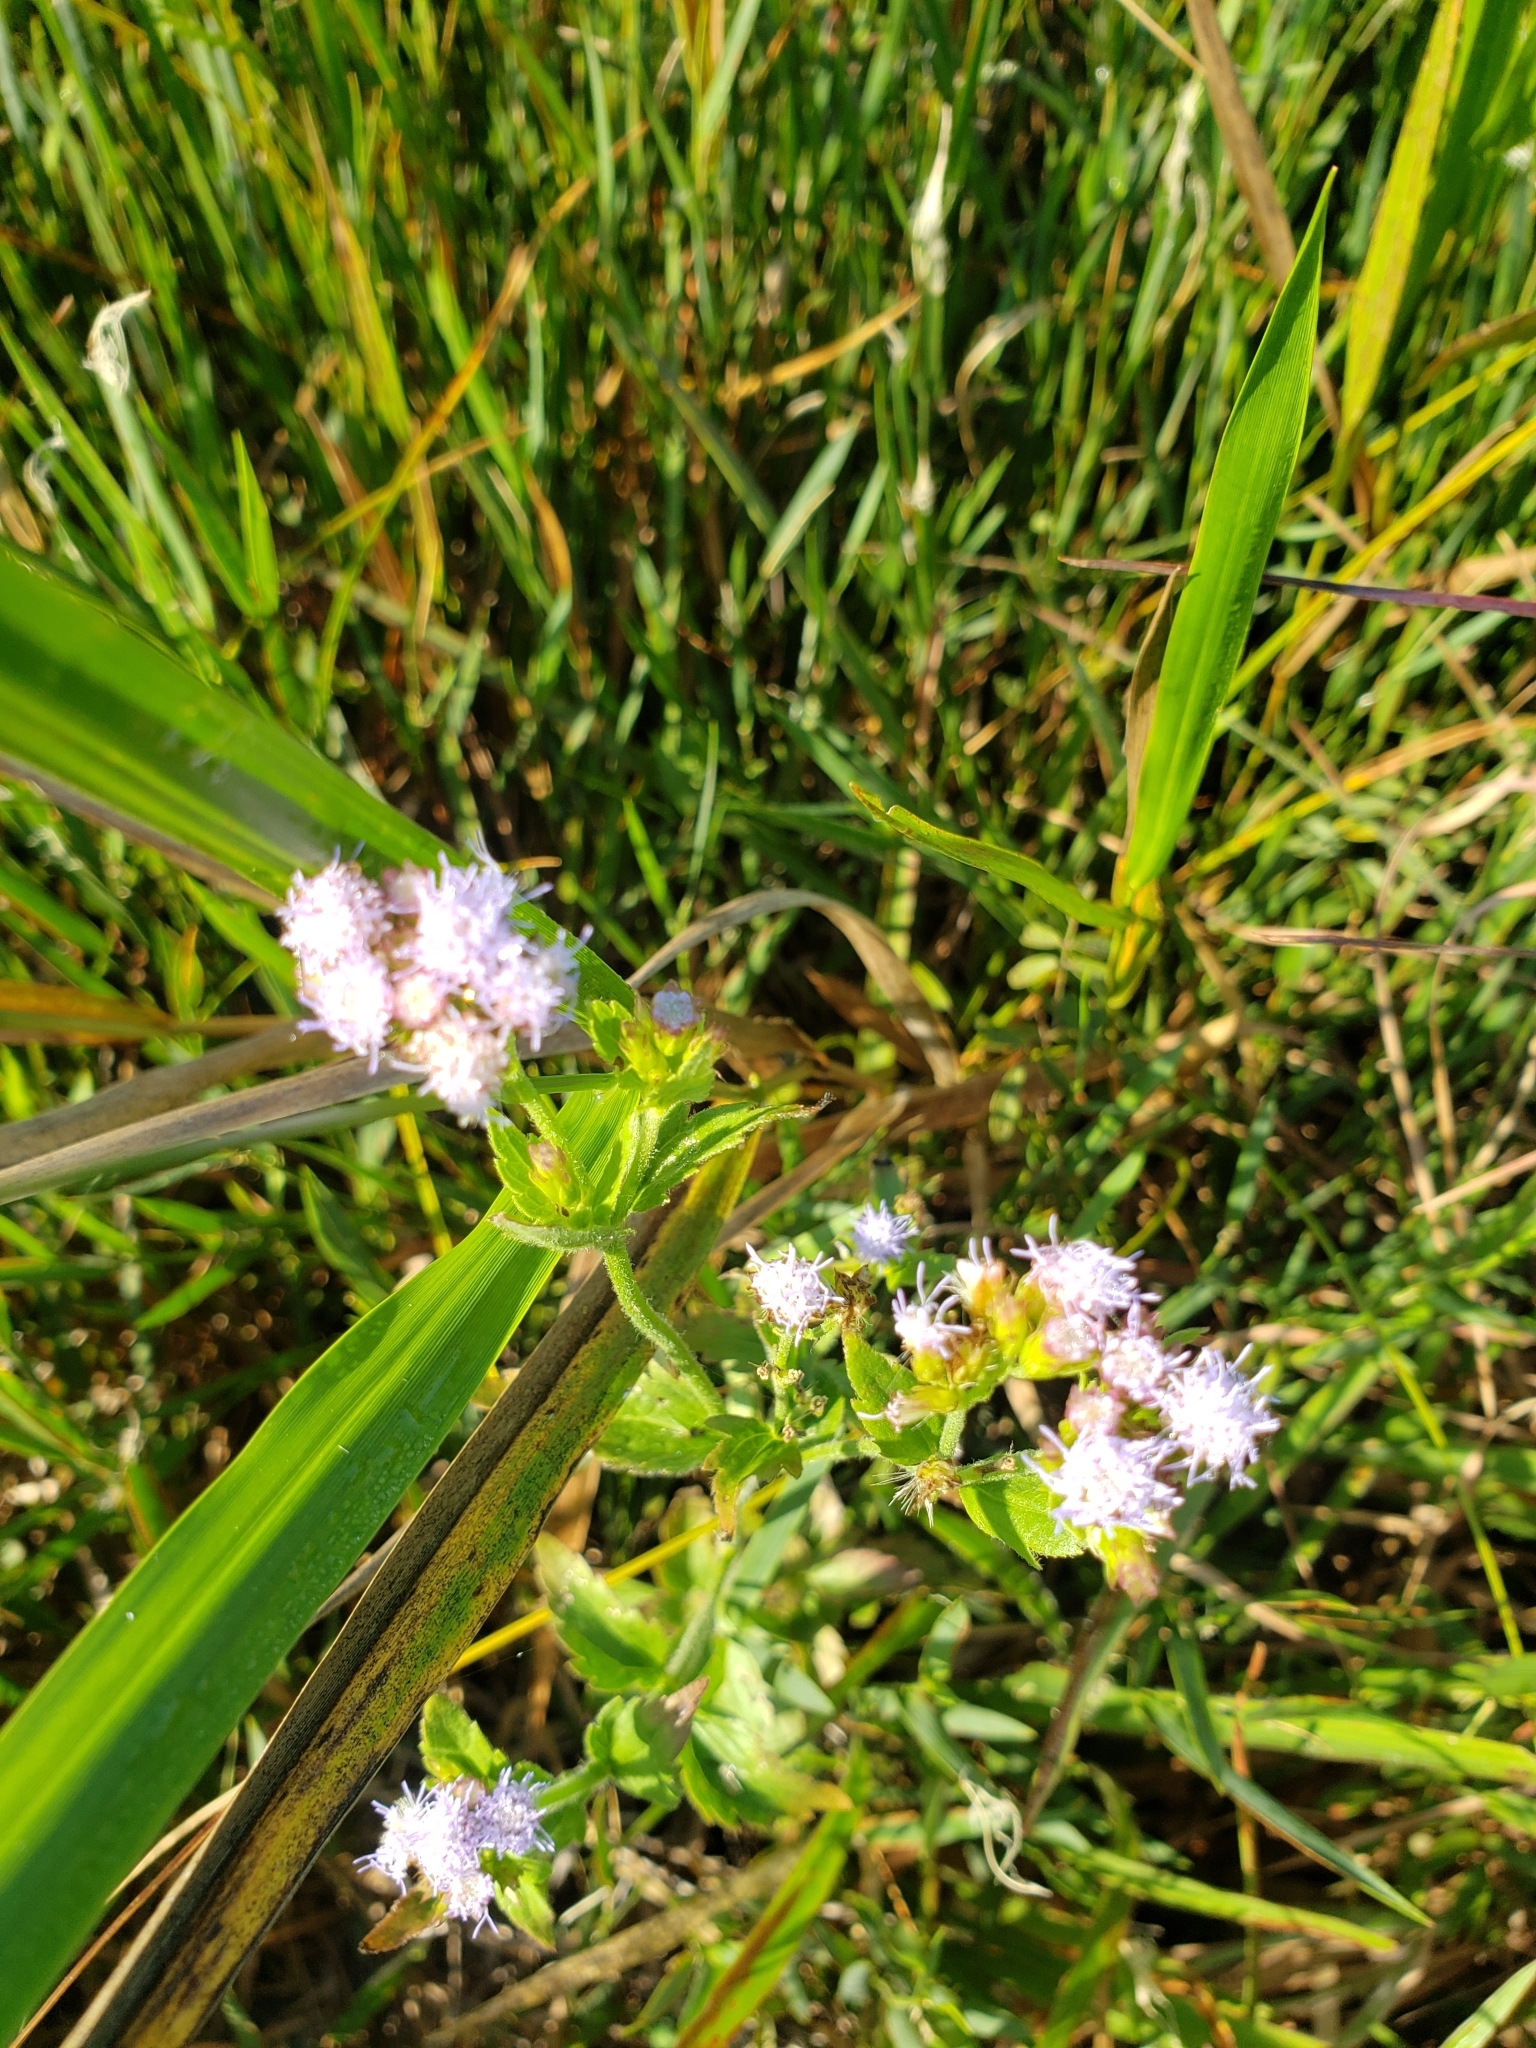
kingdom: Plantae
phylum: Tracheophyta
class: Magnoliopsida
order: Asterales
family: Asteraceae
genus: Praxelis
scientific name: Praxelis clematidea
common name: Praxelis
